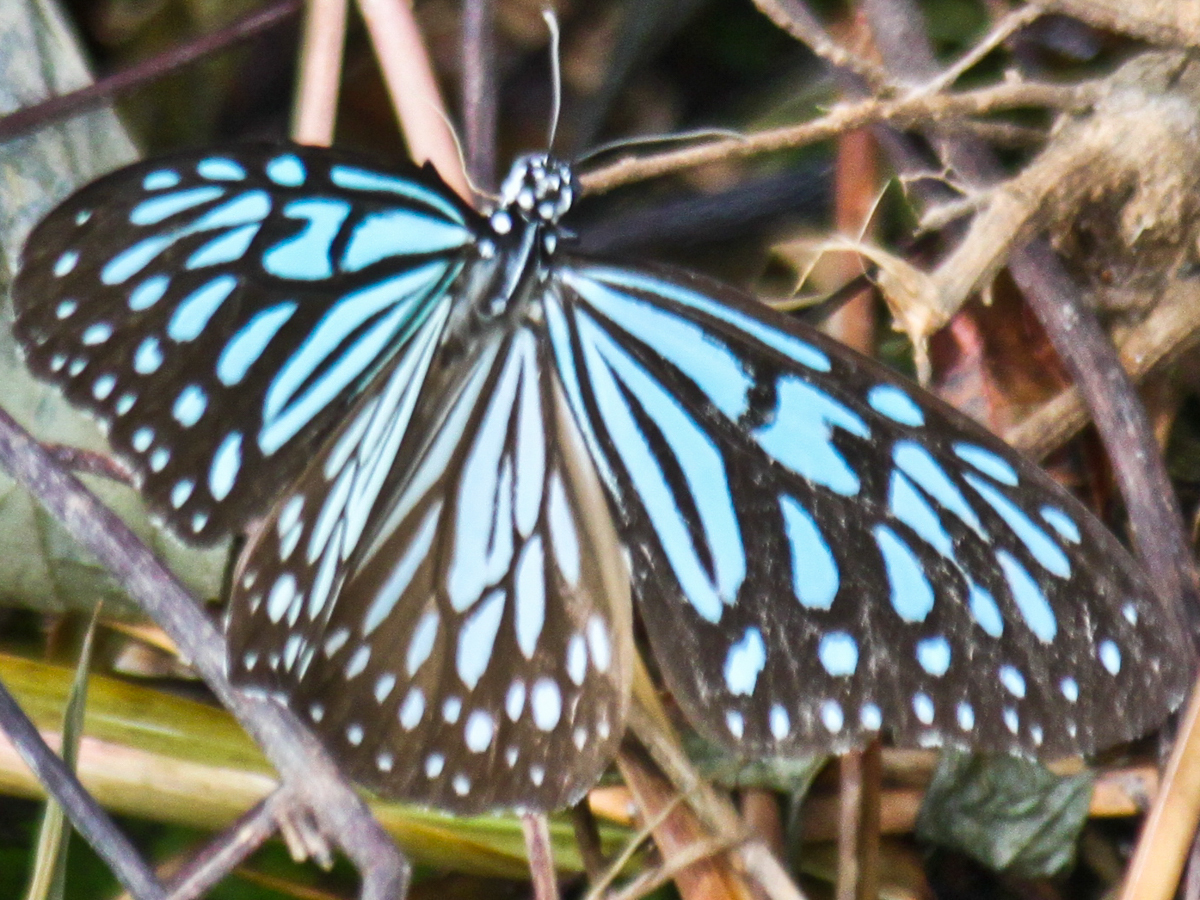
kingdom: Animalia
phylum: Arthropoda
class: Insecta
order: Lepidoptera
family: Nymphalidae
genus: Ideopsis
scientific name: Ideopsis vulgaris
